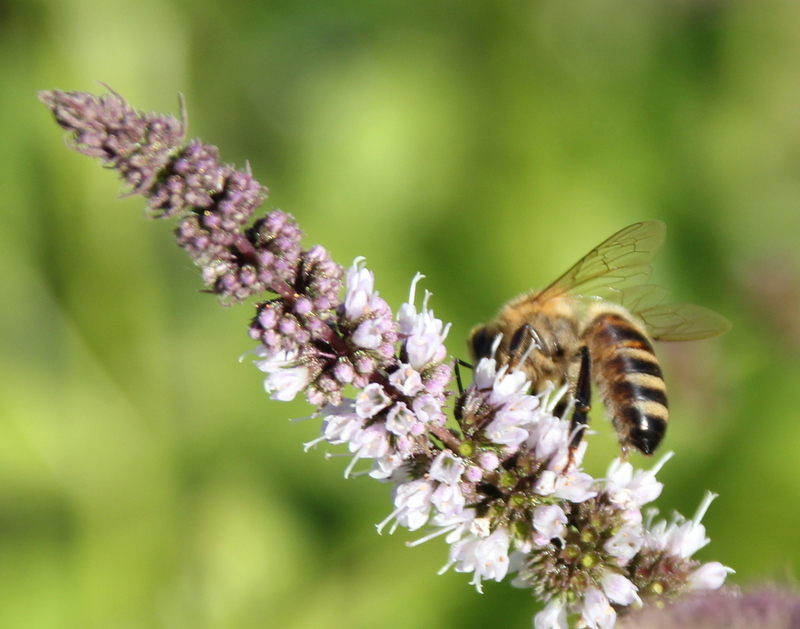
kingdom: Animalia
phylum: Arthropoda
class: Insecta
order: Hymenoptera
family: Apidae
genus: Apis
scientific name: Apis mellifera
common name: Honey bee
